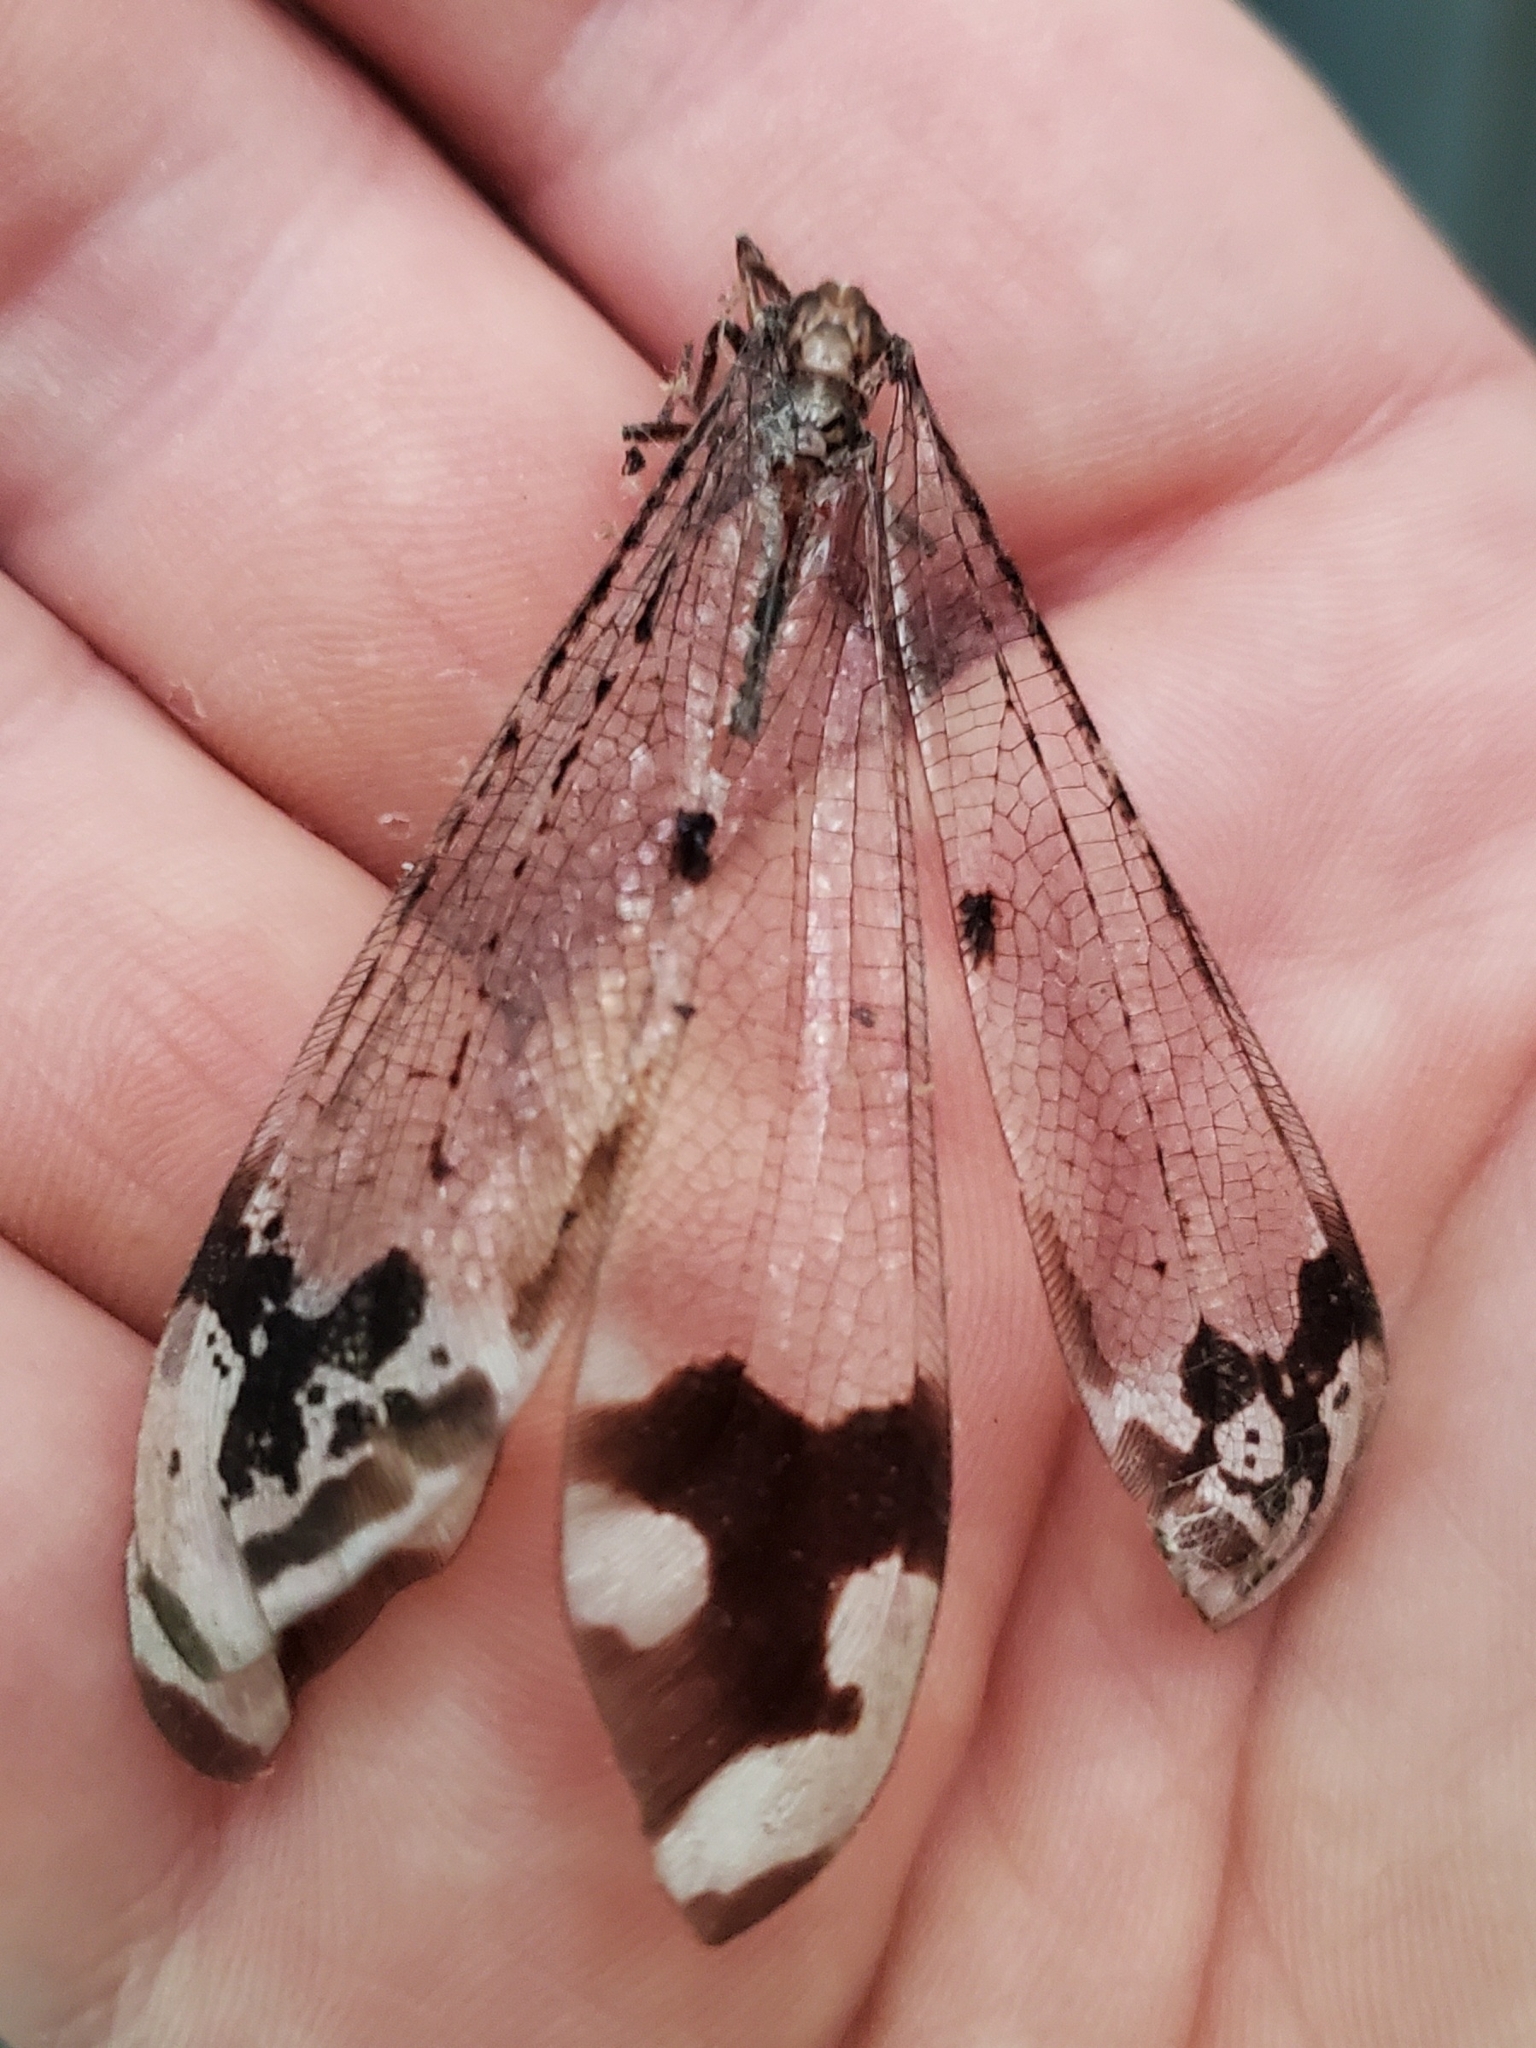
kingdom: Animalia
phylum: Arthropoda
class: Insecta
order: Neuroptera
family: Myrmeleontidae
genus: Glenurus
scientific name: Glenurus gratus
